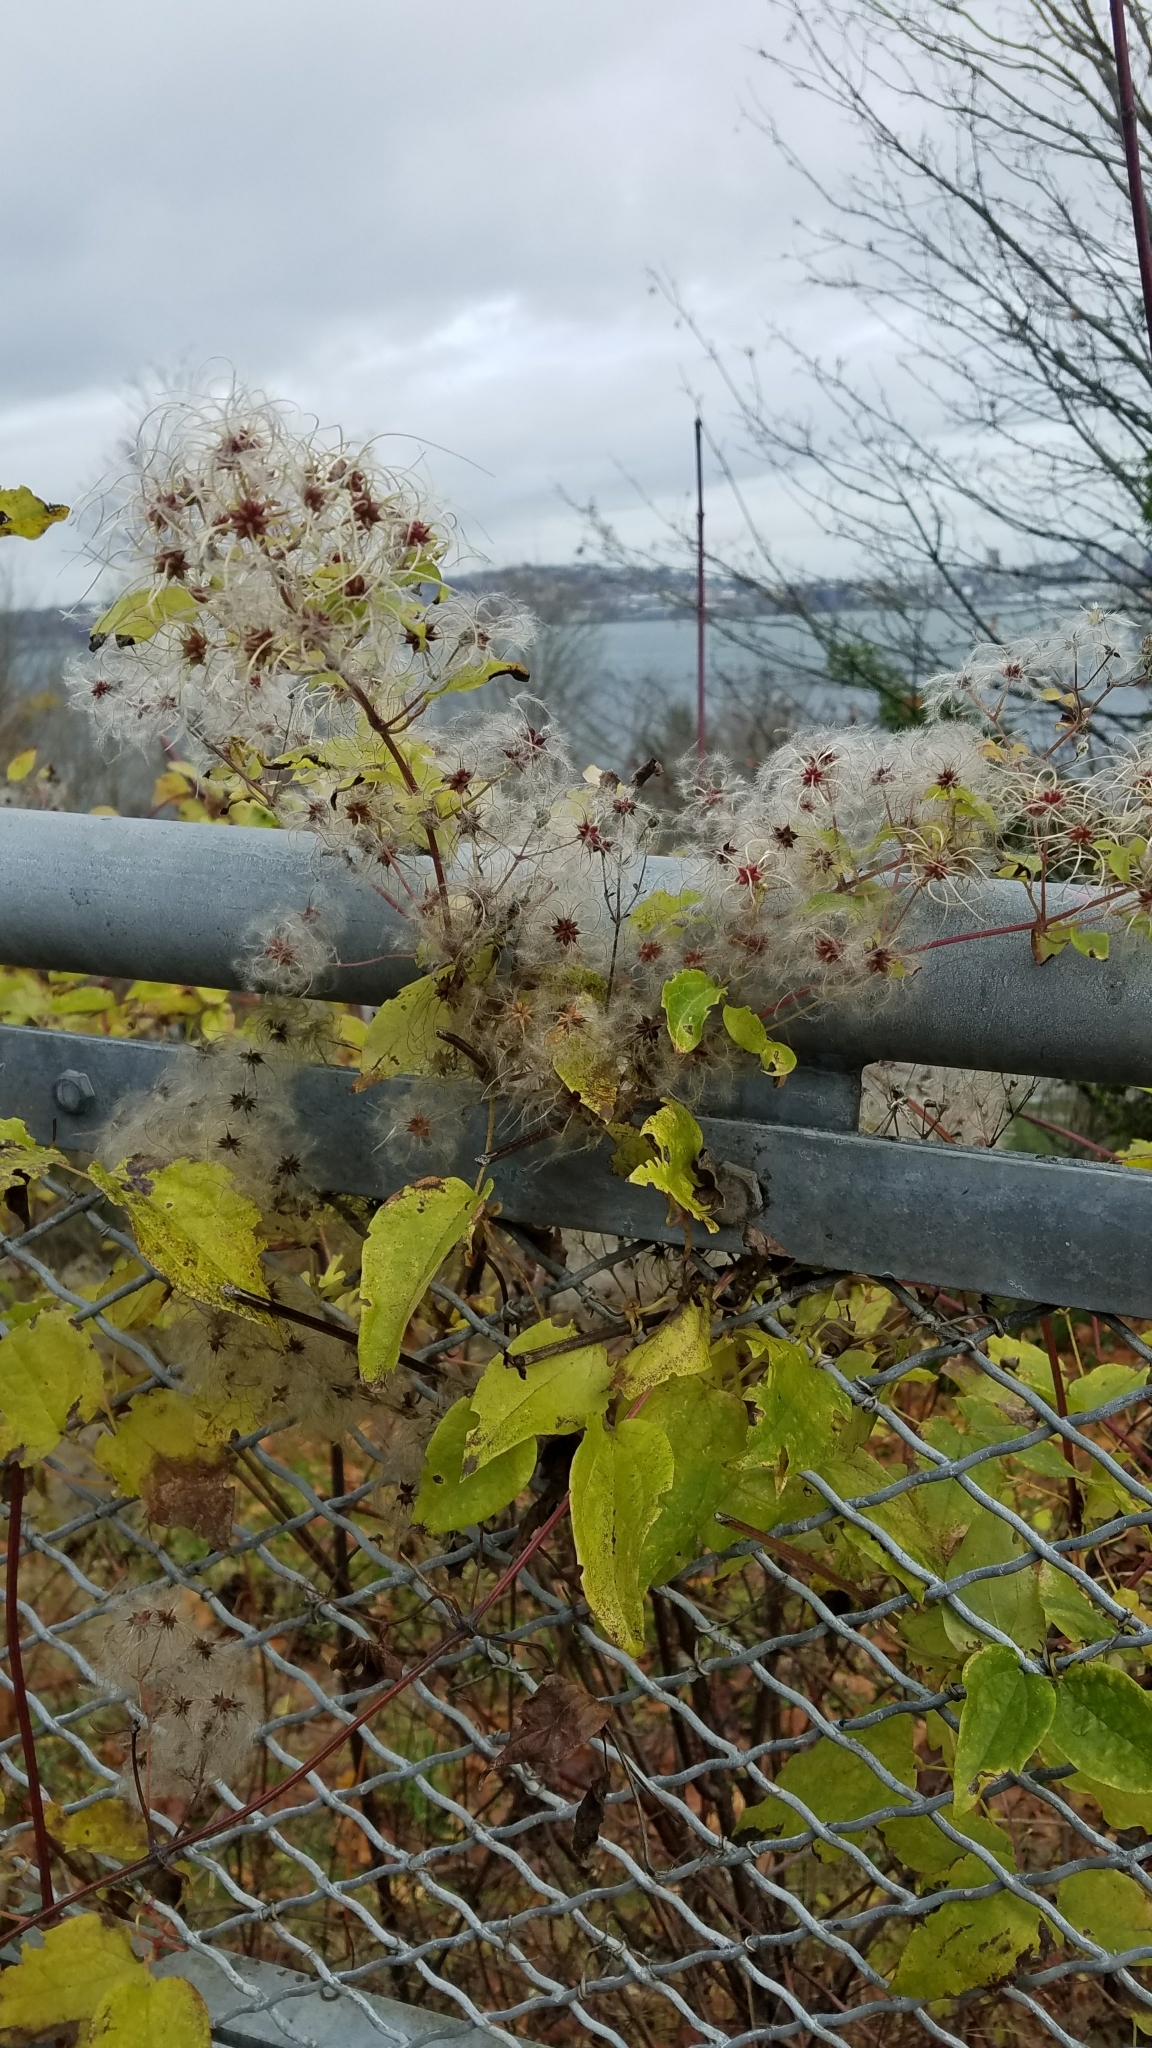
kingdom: Plantae
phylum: Tracheophyta
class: Magnoliopsida
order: Ranunculales
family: Ranunculaceae
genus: Clematis
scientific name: Clematis vitalba
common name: Evergreen clematis
